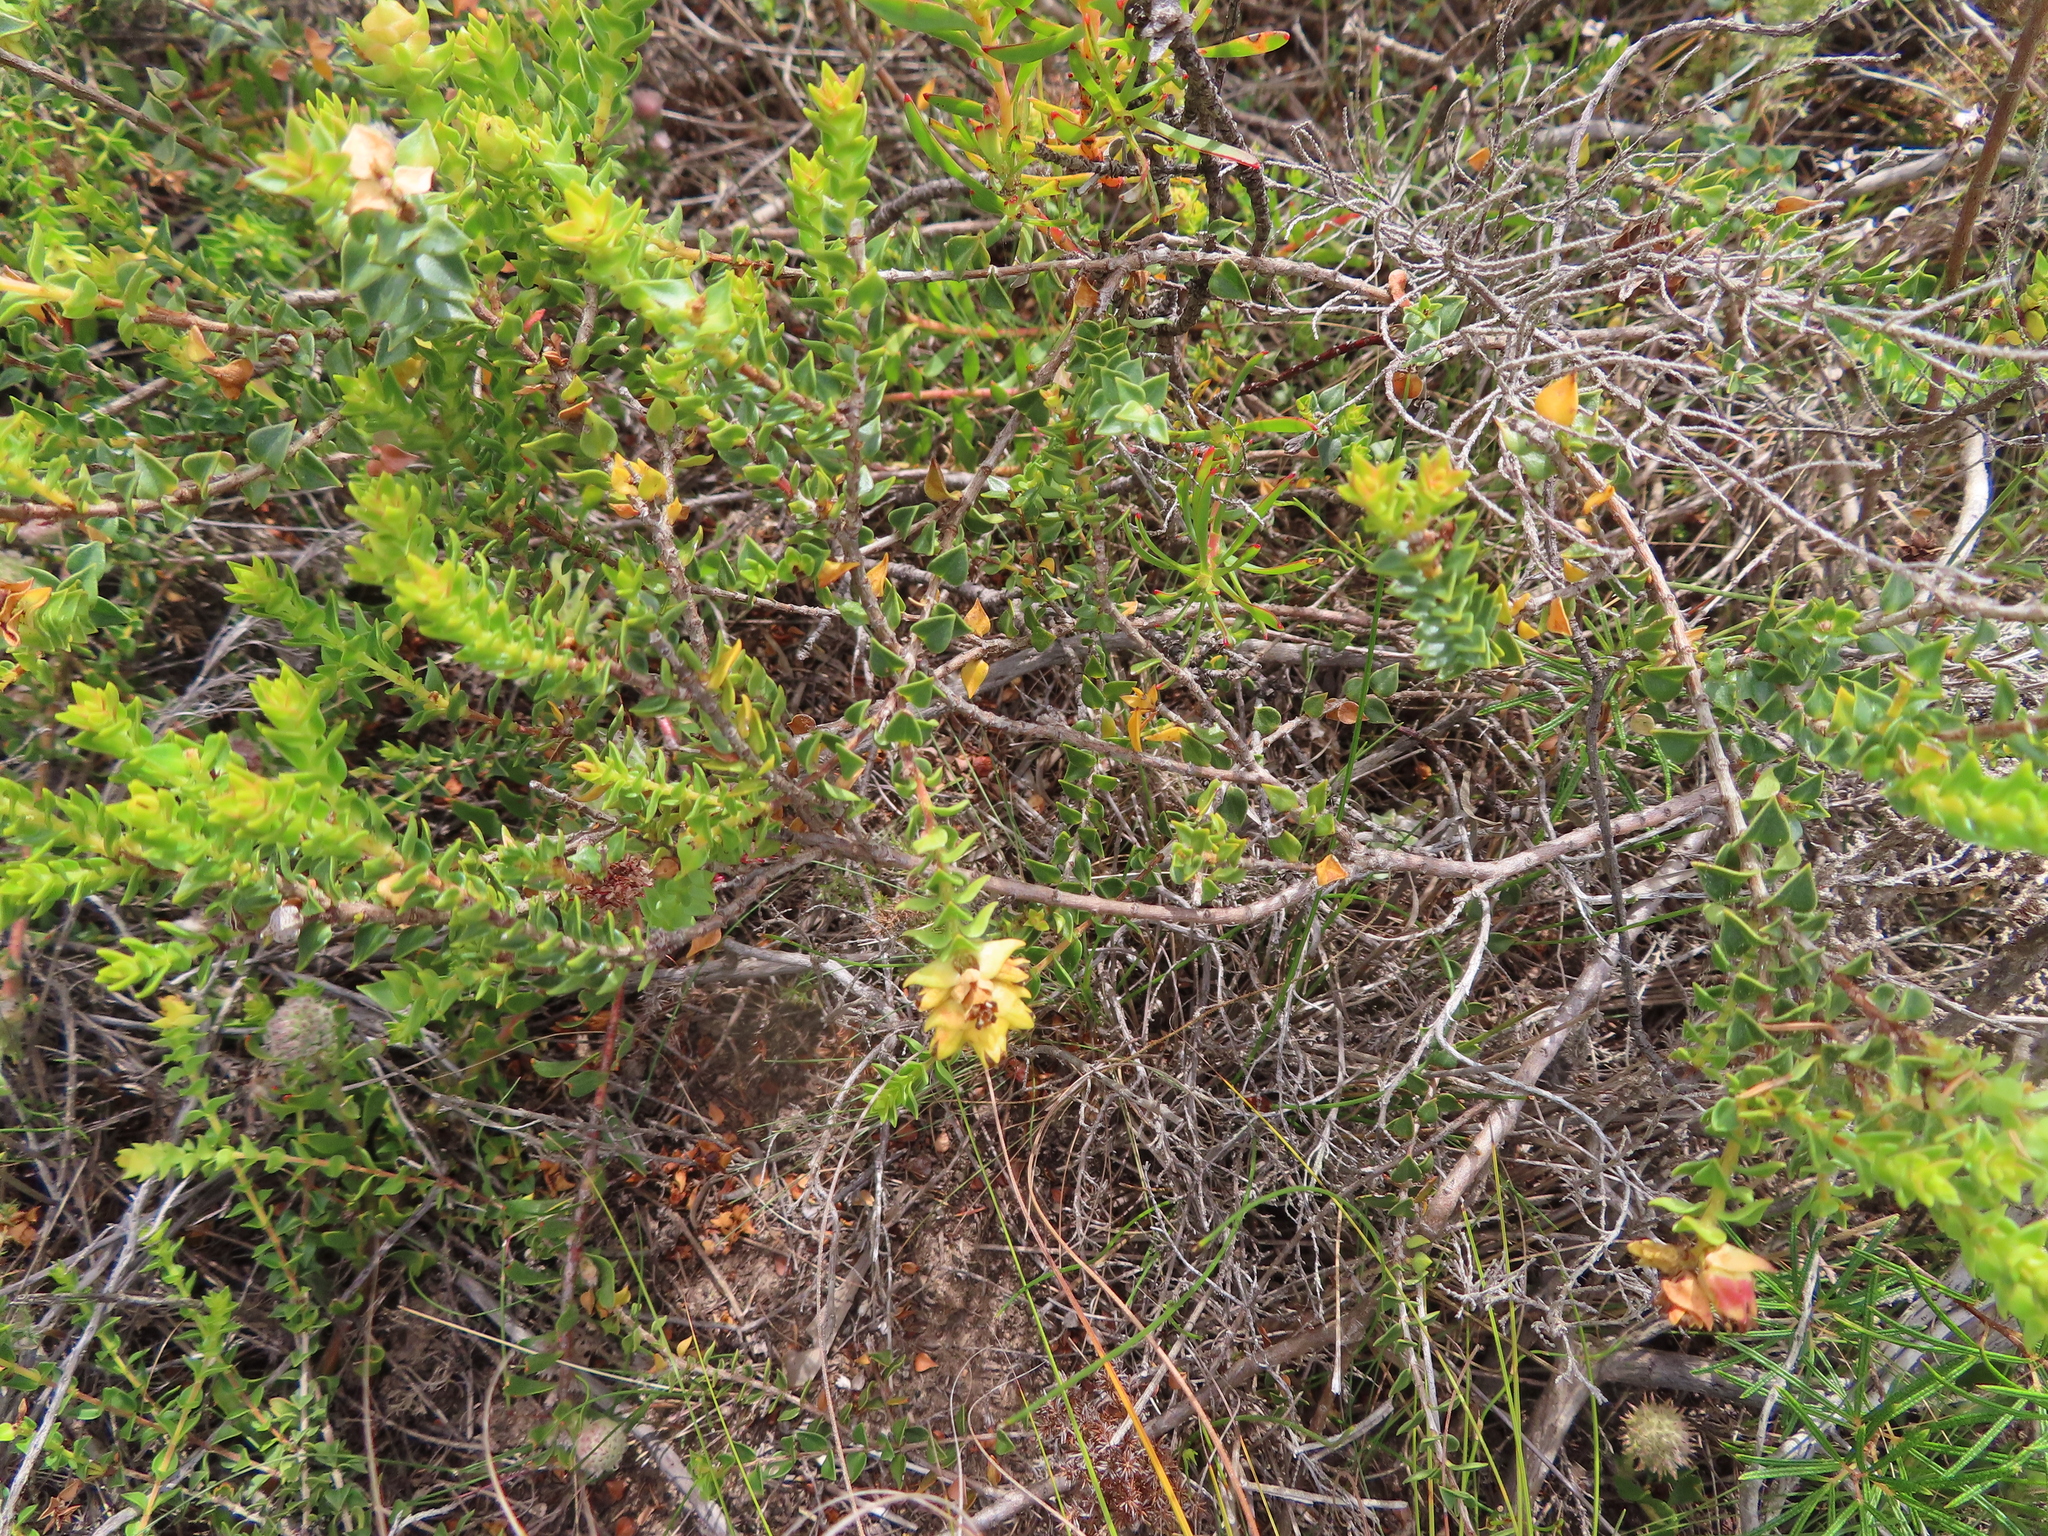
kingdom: Plantae
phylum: Tracheophyta
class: Magnoliopsida
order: Myrtales
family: Penaeaceae
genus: Penaea
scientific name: Penaea mucronata
